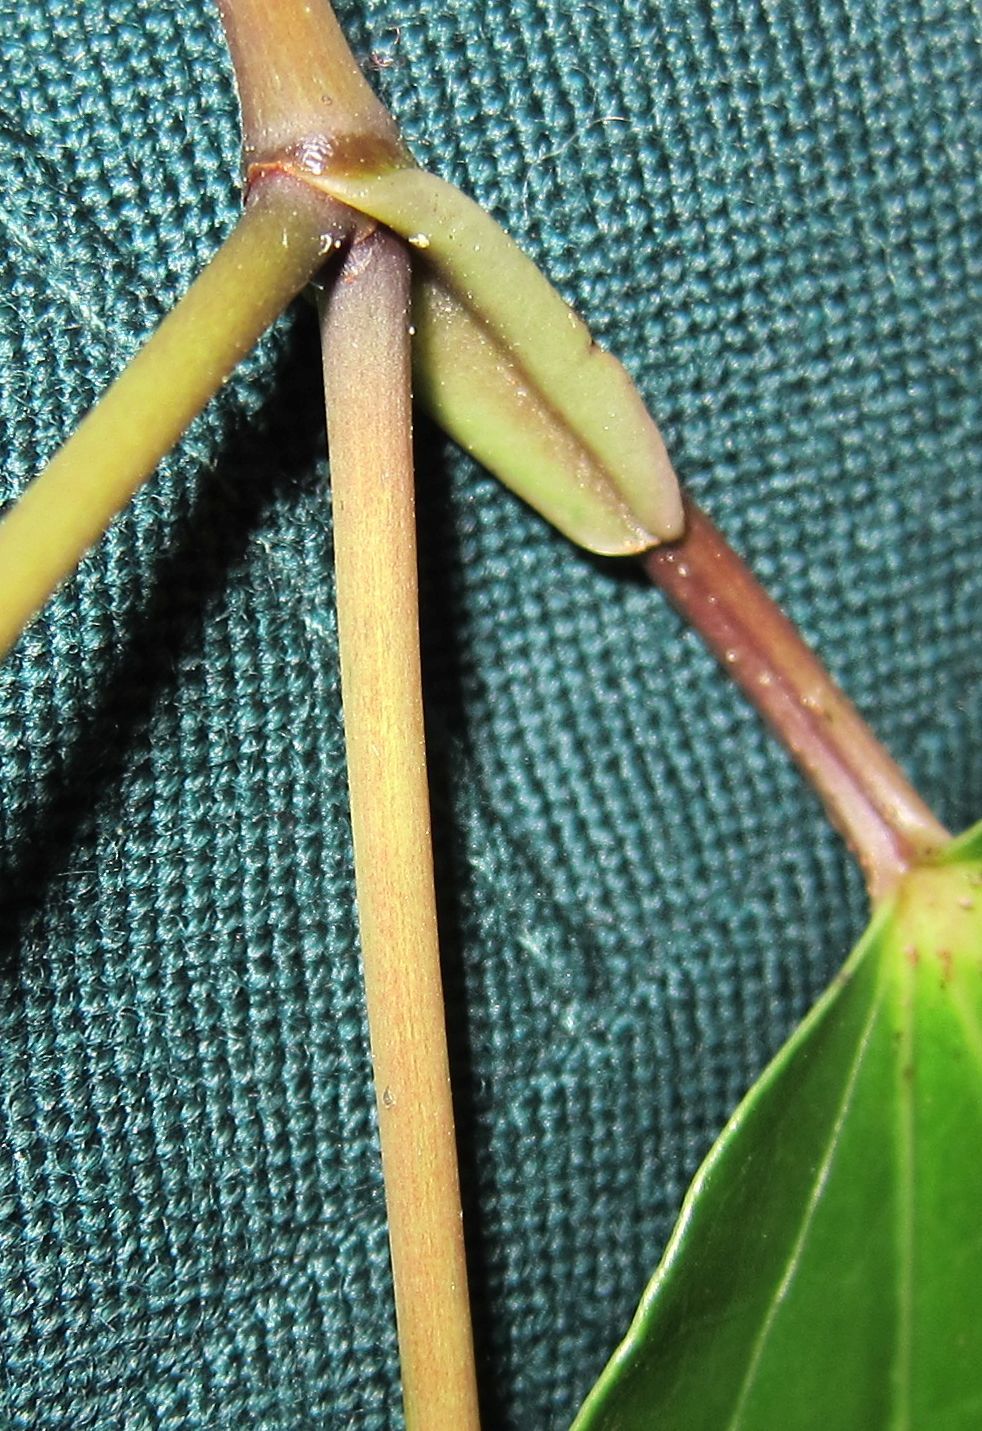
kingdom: Plantae
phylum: Tracheophyta
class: Magnoliopsida
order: Piperales
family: Piperaceae
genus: Macropiper
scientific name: Macropiper excelsum
